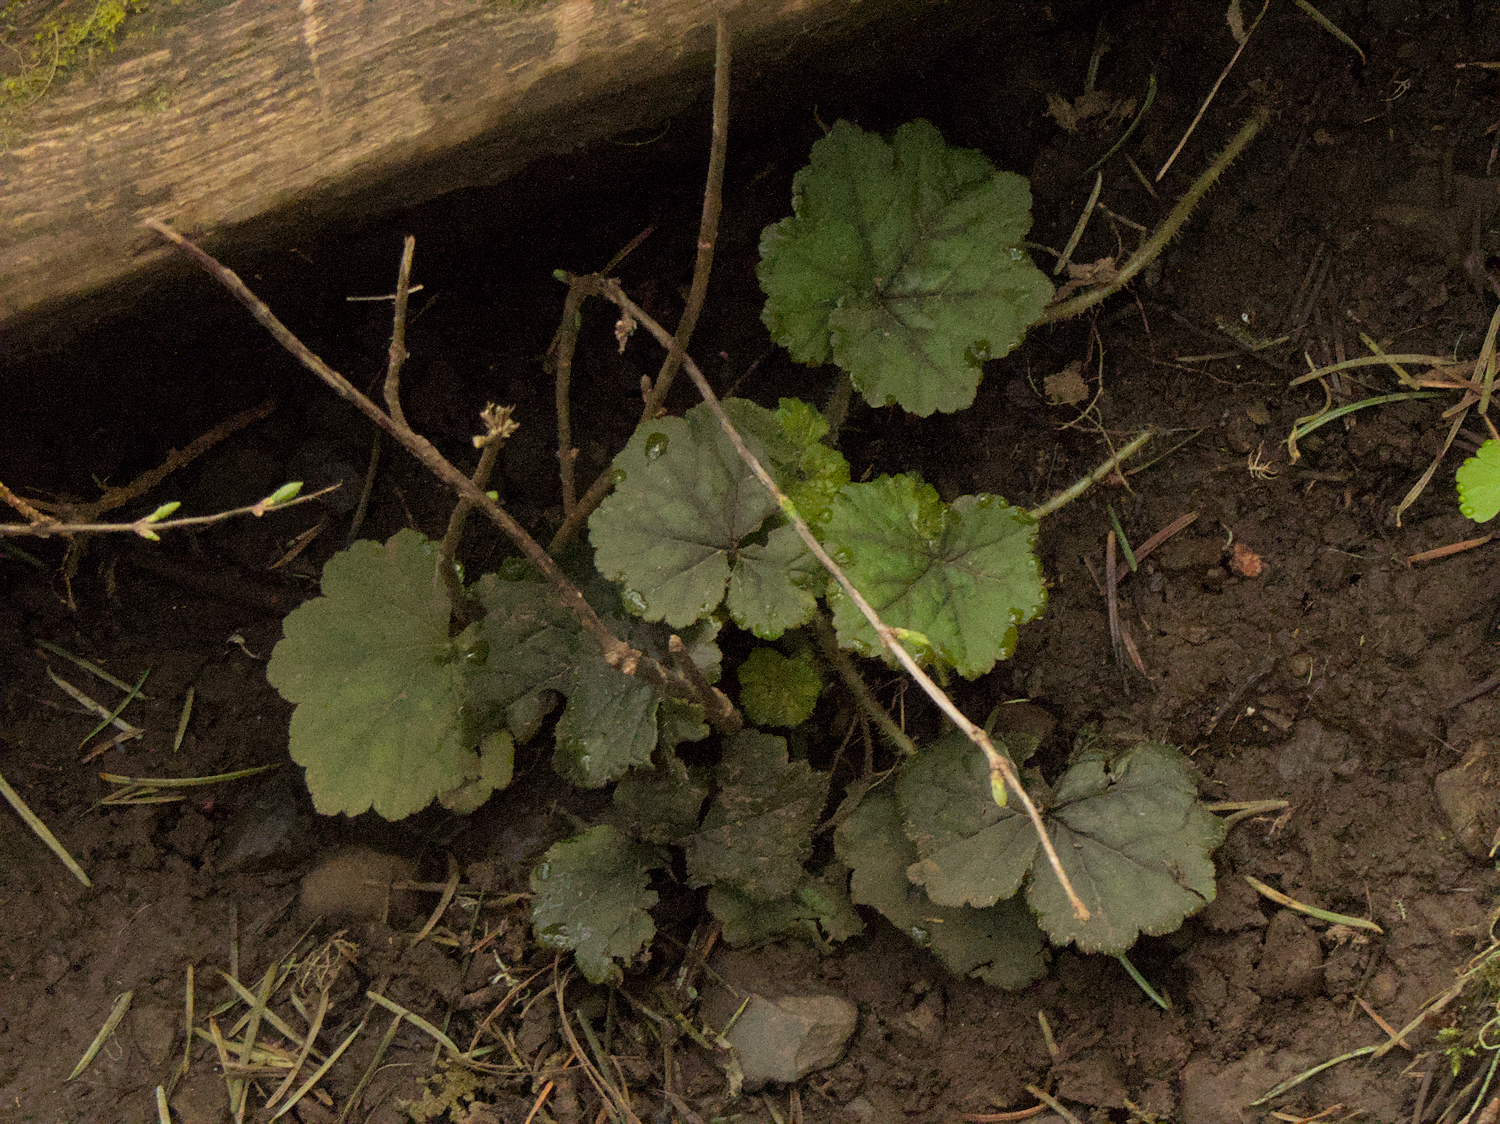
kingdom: Plantae
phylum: Tracheophyta
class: Magnoliopsida
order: Saxifragales
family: Saxifragaceae
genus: Tellima
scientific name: Tellima grandiflora
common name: Fringecups
